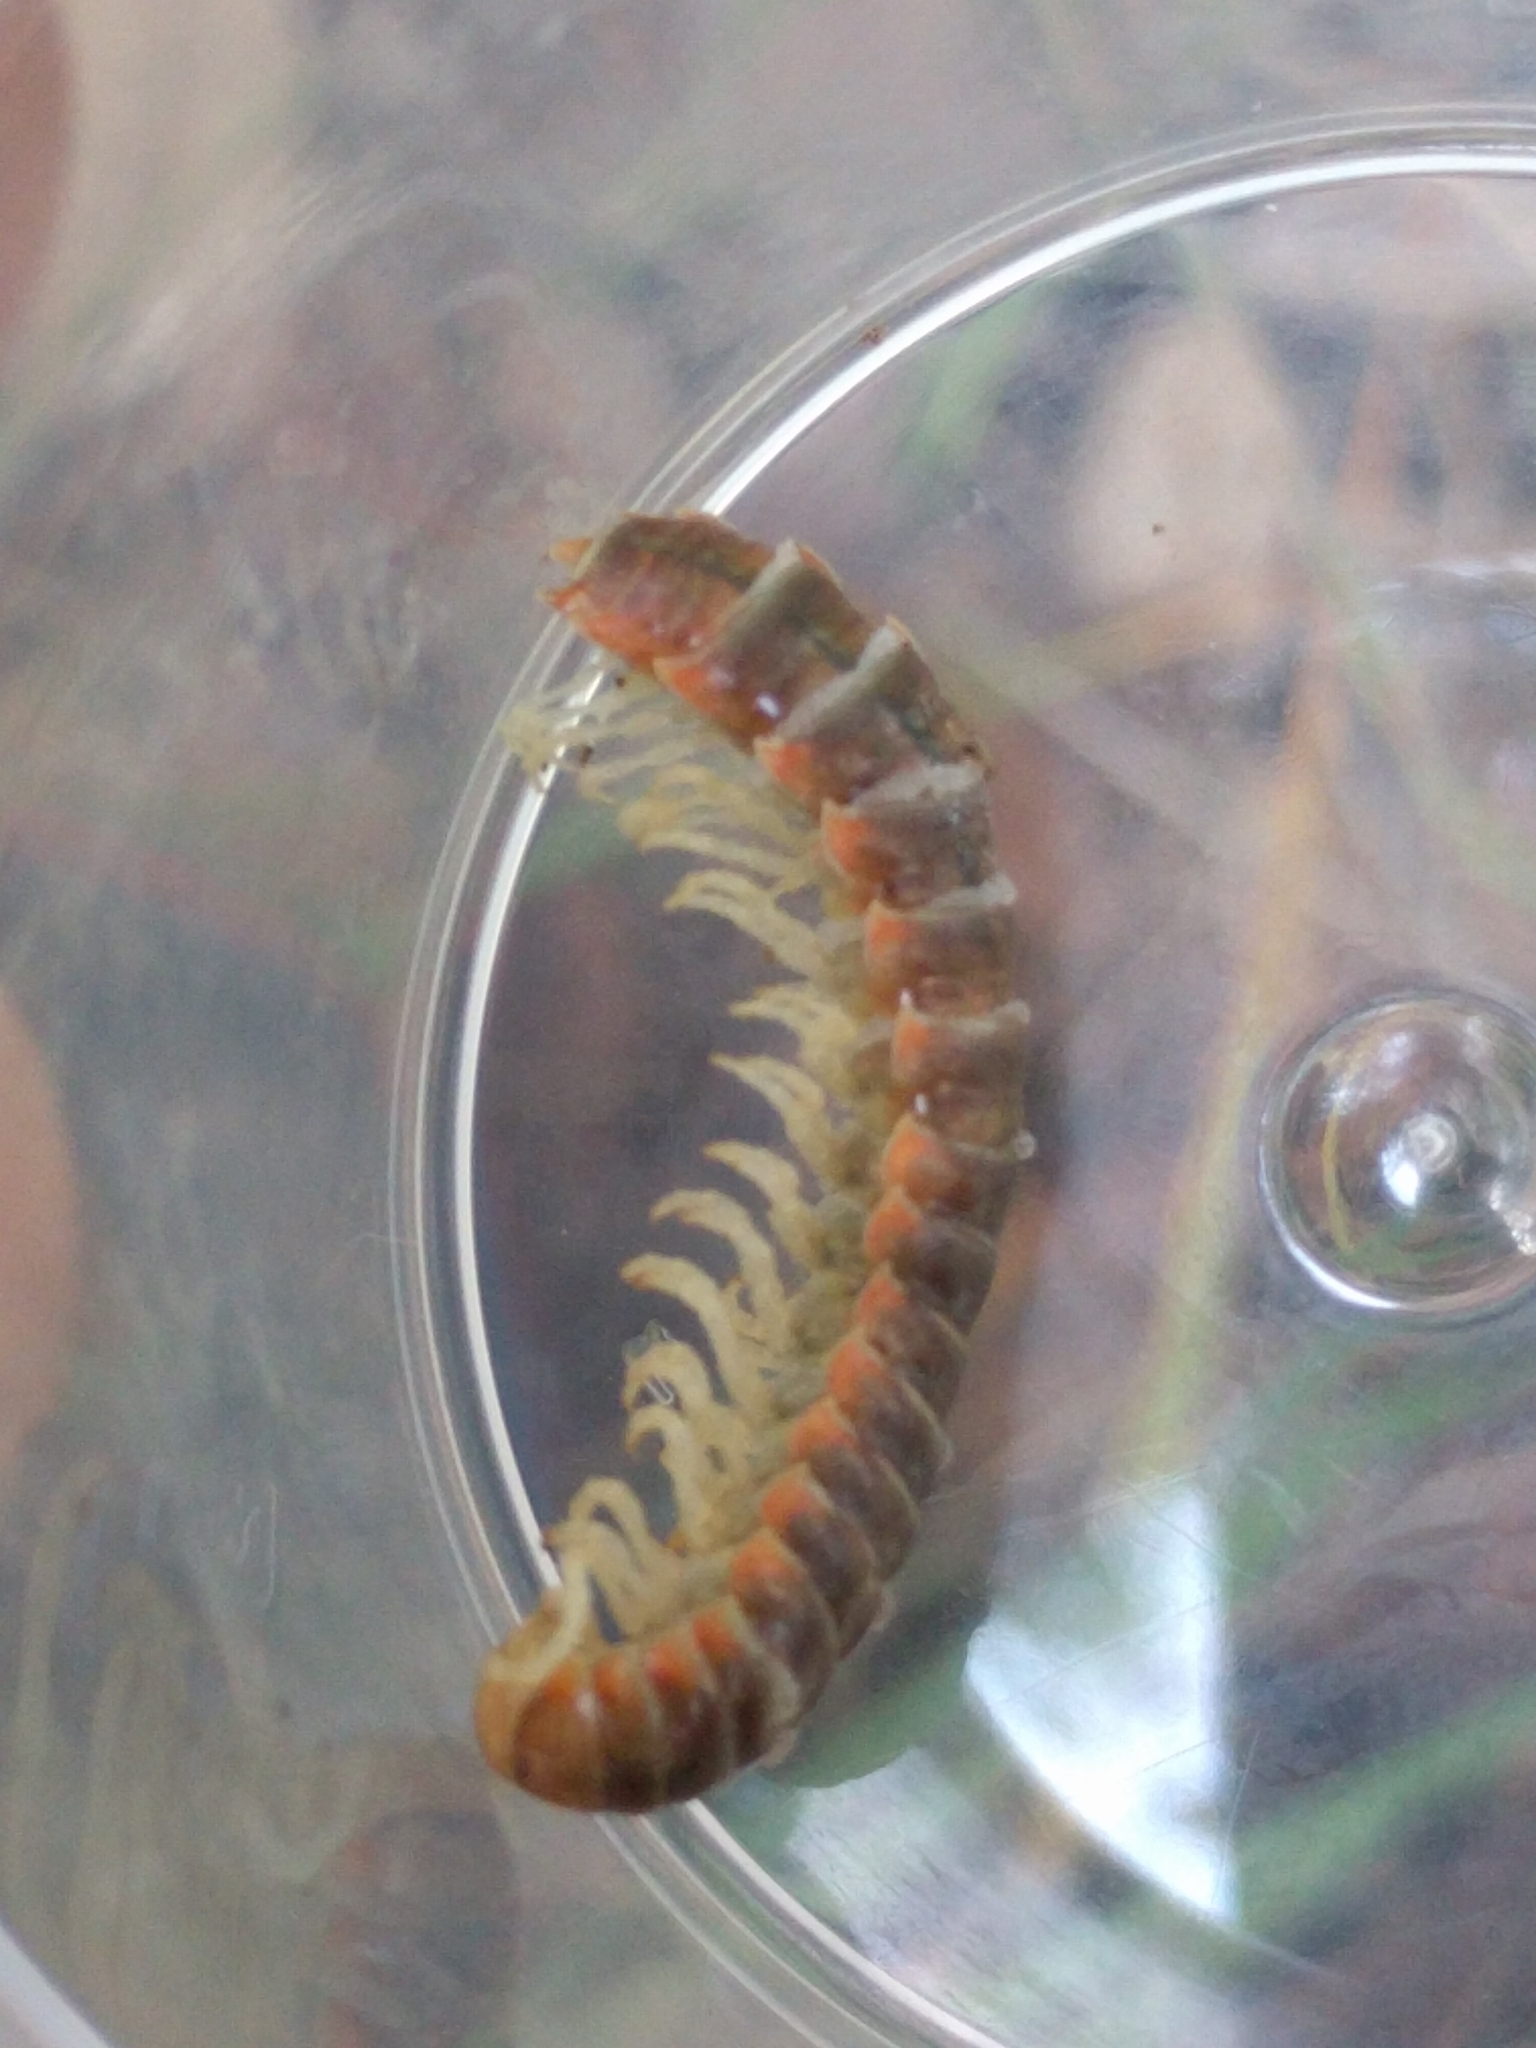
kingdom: Animalia
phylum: Arthropoda
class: Diplopoda
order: Polydesmida
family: Xystodesmidae
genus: Xystocheir
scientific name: Xystocheir dissecta
